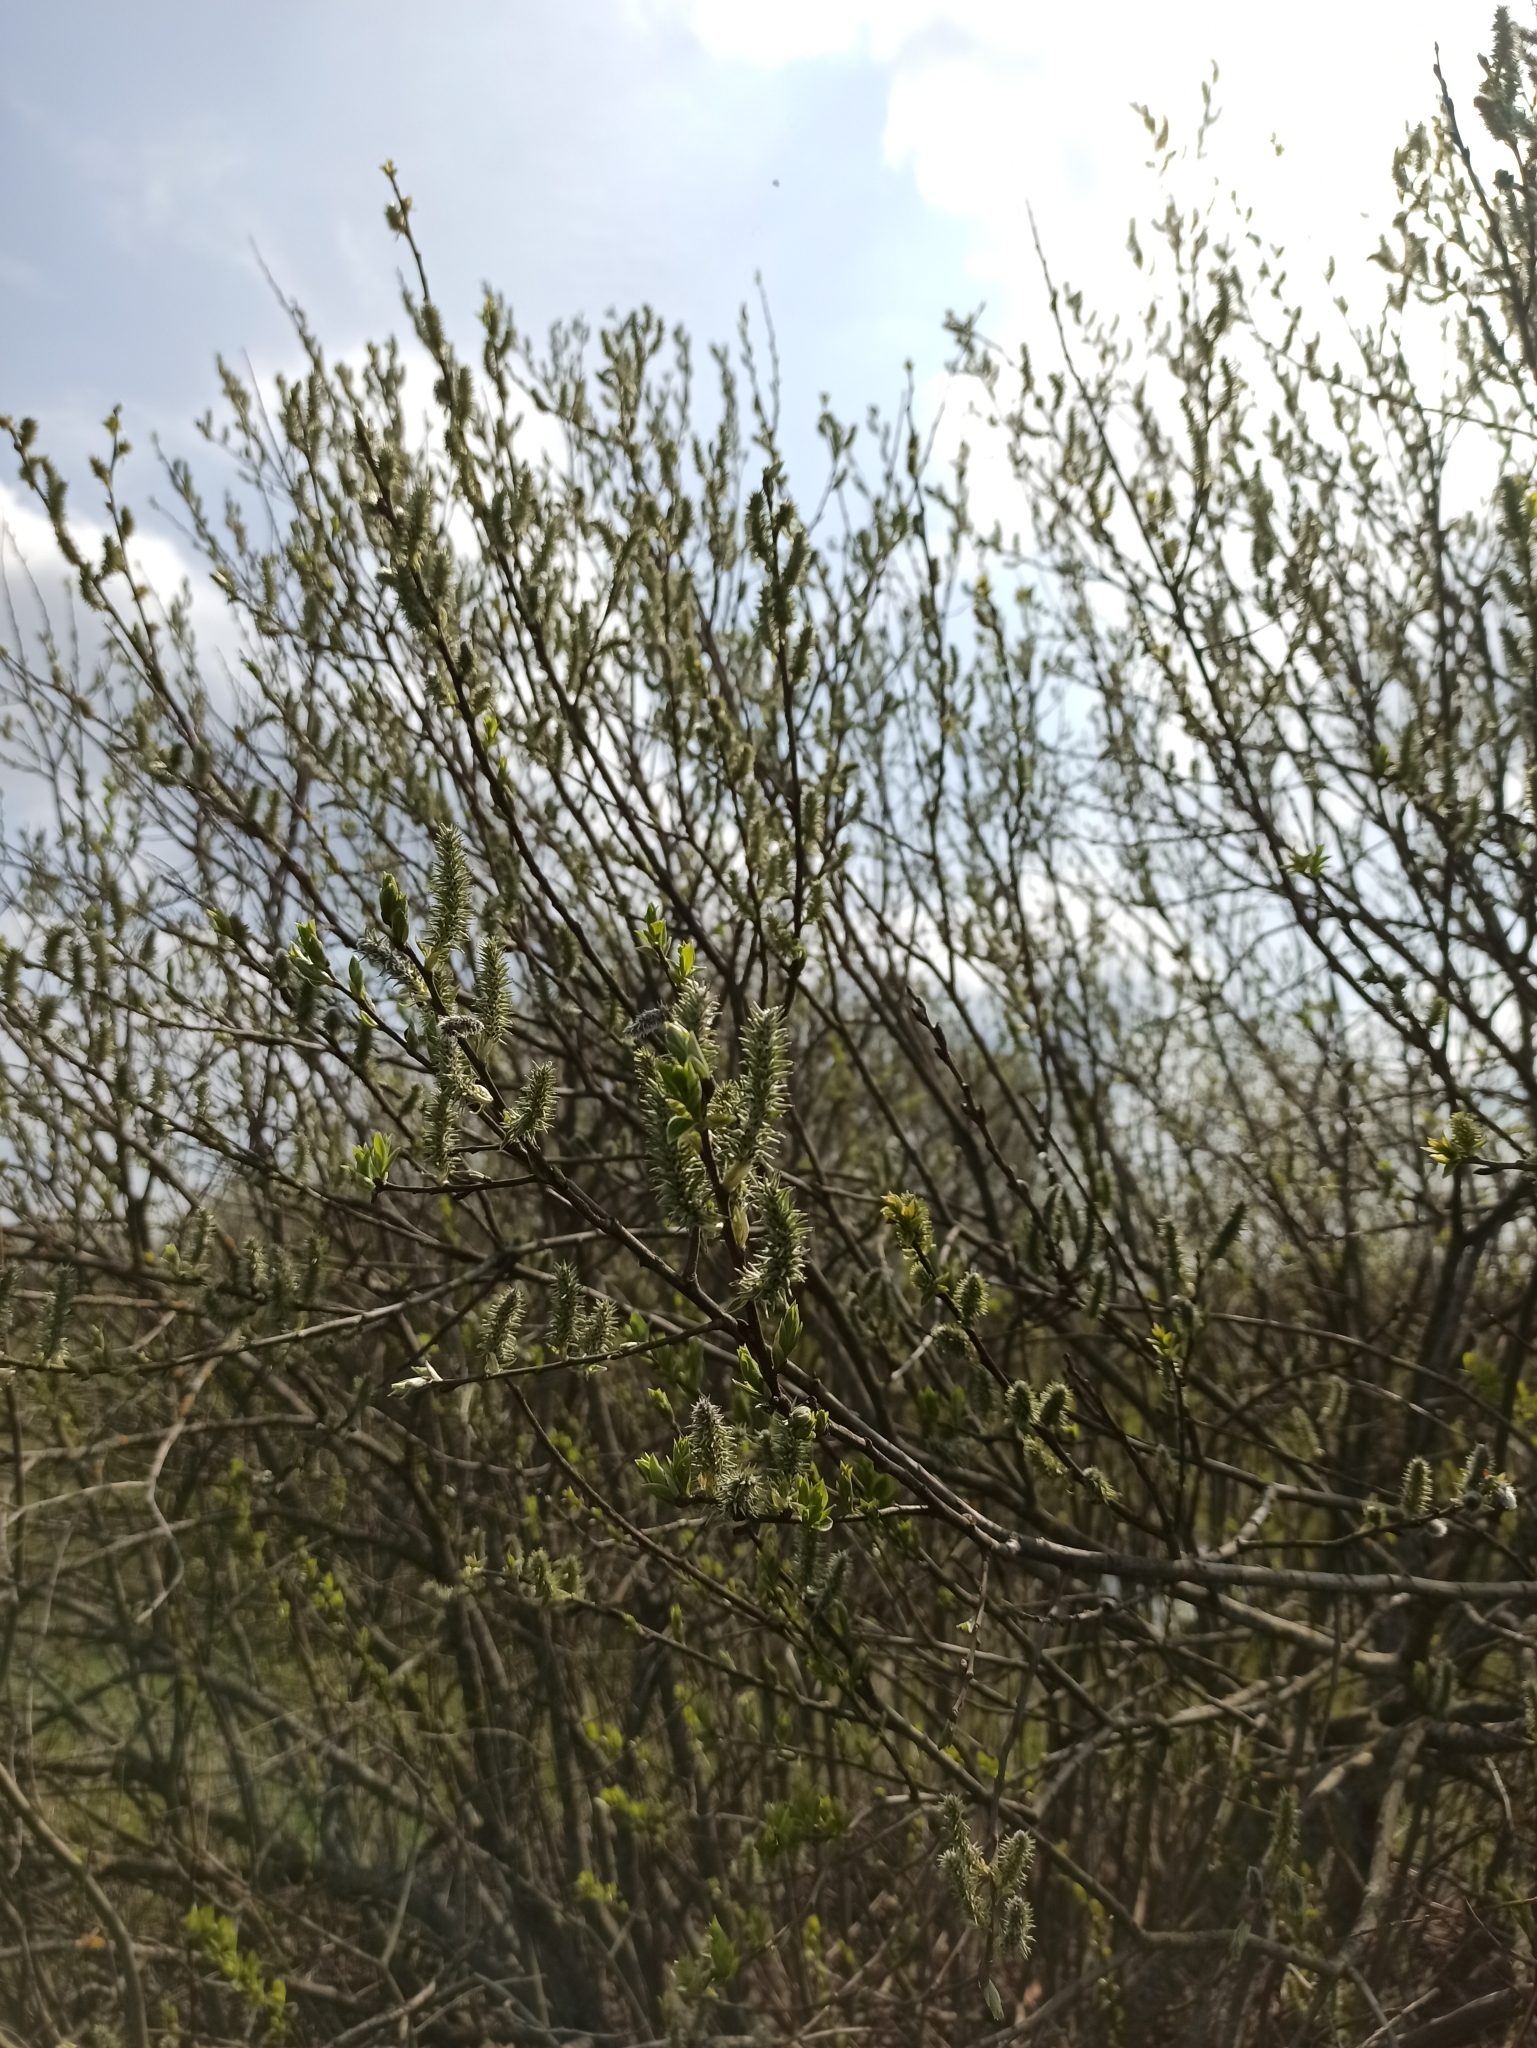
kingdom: Plantae
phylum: Tracheophyta
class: Magnoliopsida
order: Malpighiales
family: Salicaceae
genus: Salix
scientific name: Salix caprea
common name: Goat willow
